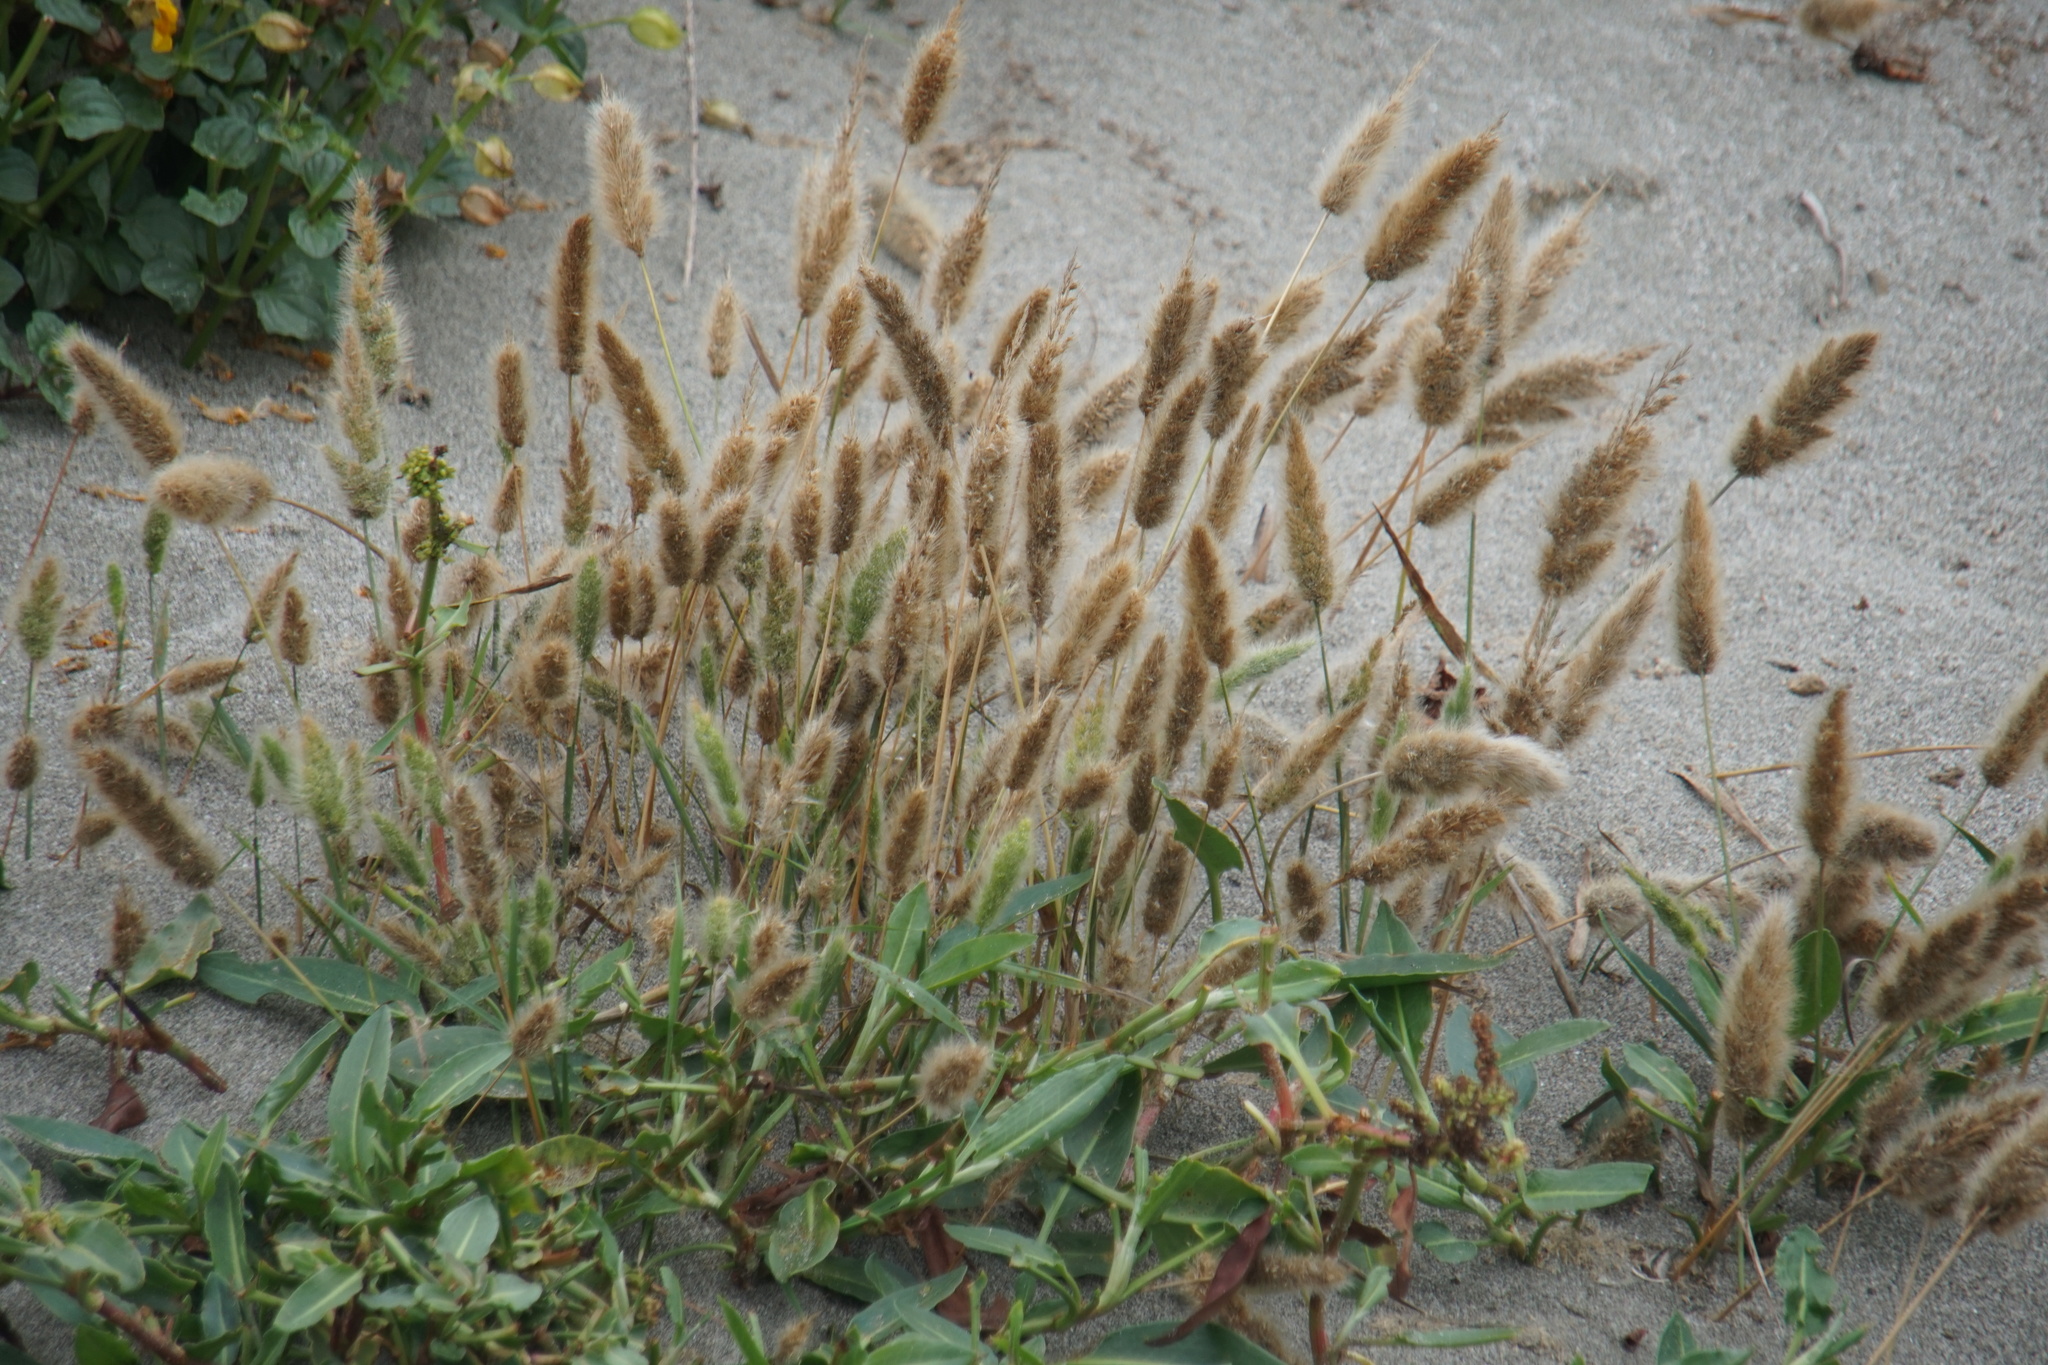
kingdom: Plantae
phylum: Tracheophyta
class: Liliopsida
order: Poales
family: Poaceae
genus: Polypogon
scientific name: Polypogon monspeliensis
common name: Annual rabbitsfoot grass
